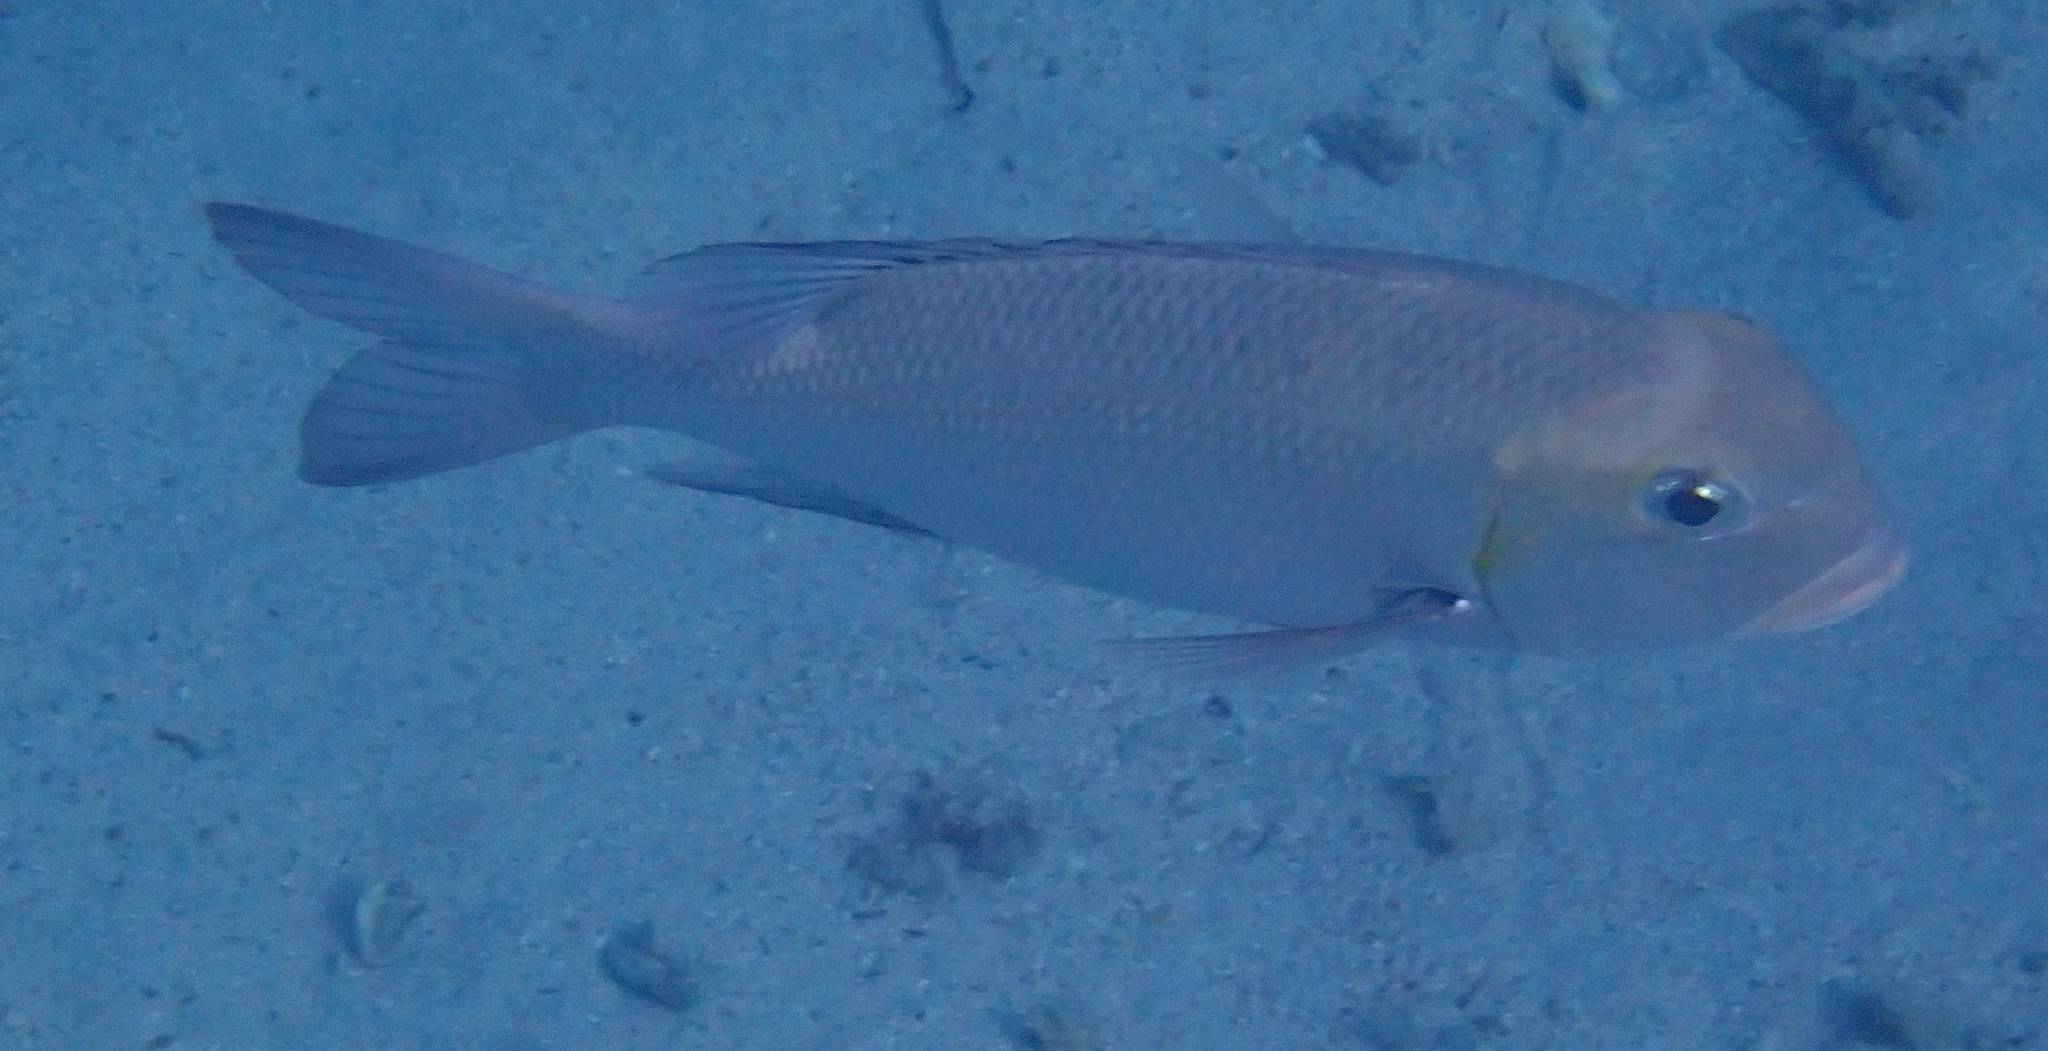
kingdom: Animalia
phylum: Chordata
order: Perciformes
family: Lethrinidae
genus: Monotaxis
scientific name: Monotaxis grandoculis
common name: Bigeye emperor
